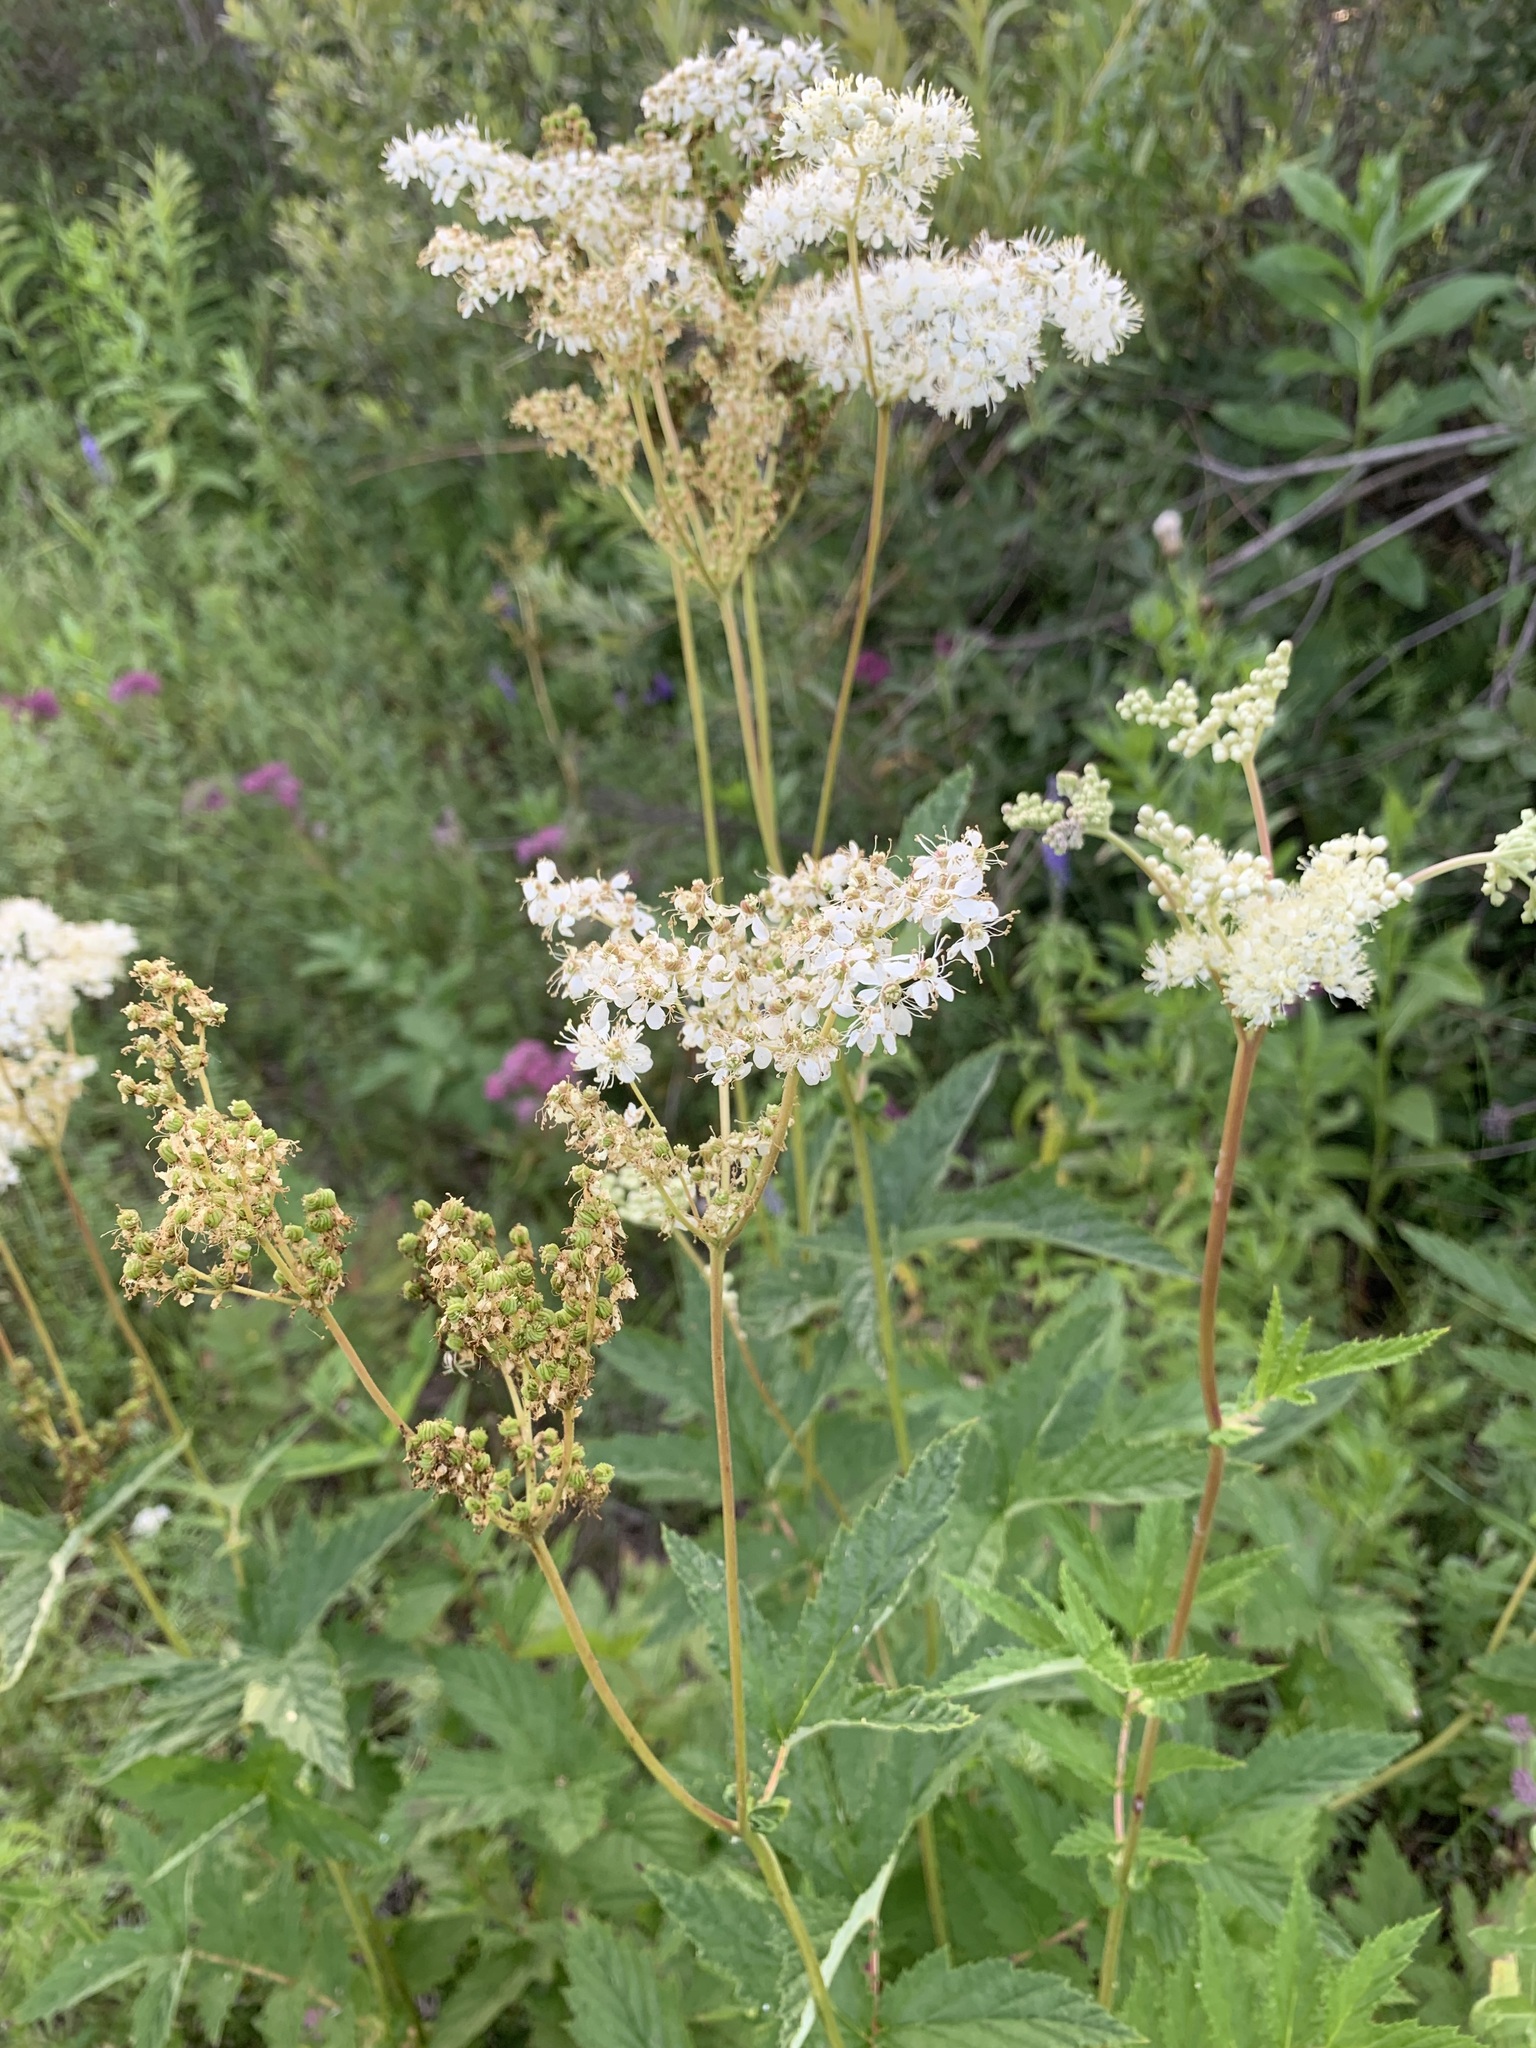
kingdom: Plantae
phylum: Tracheophyta
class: Magnoliopsida
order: Rosales
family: Rosaceae
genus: Filipendula
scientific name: Filipendula ulmaria
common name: Meadowsweet
